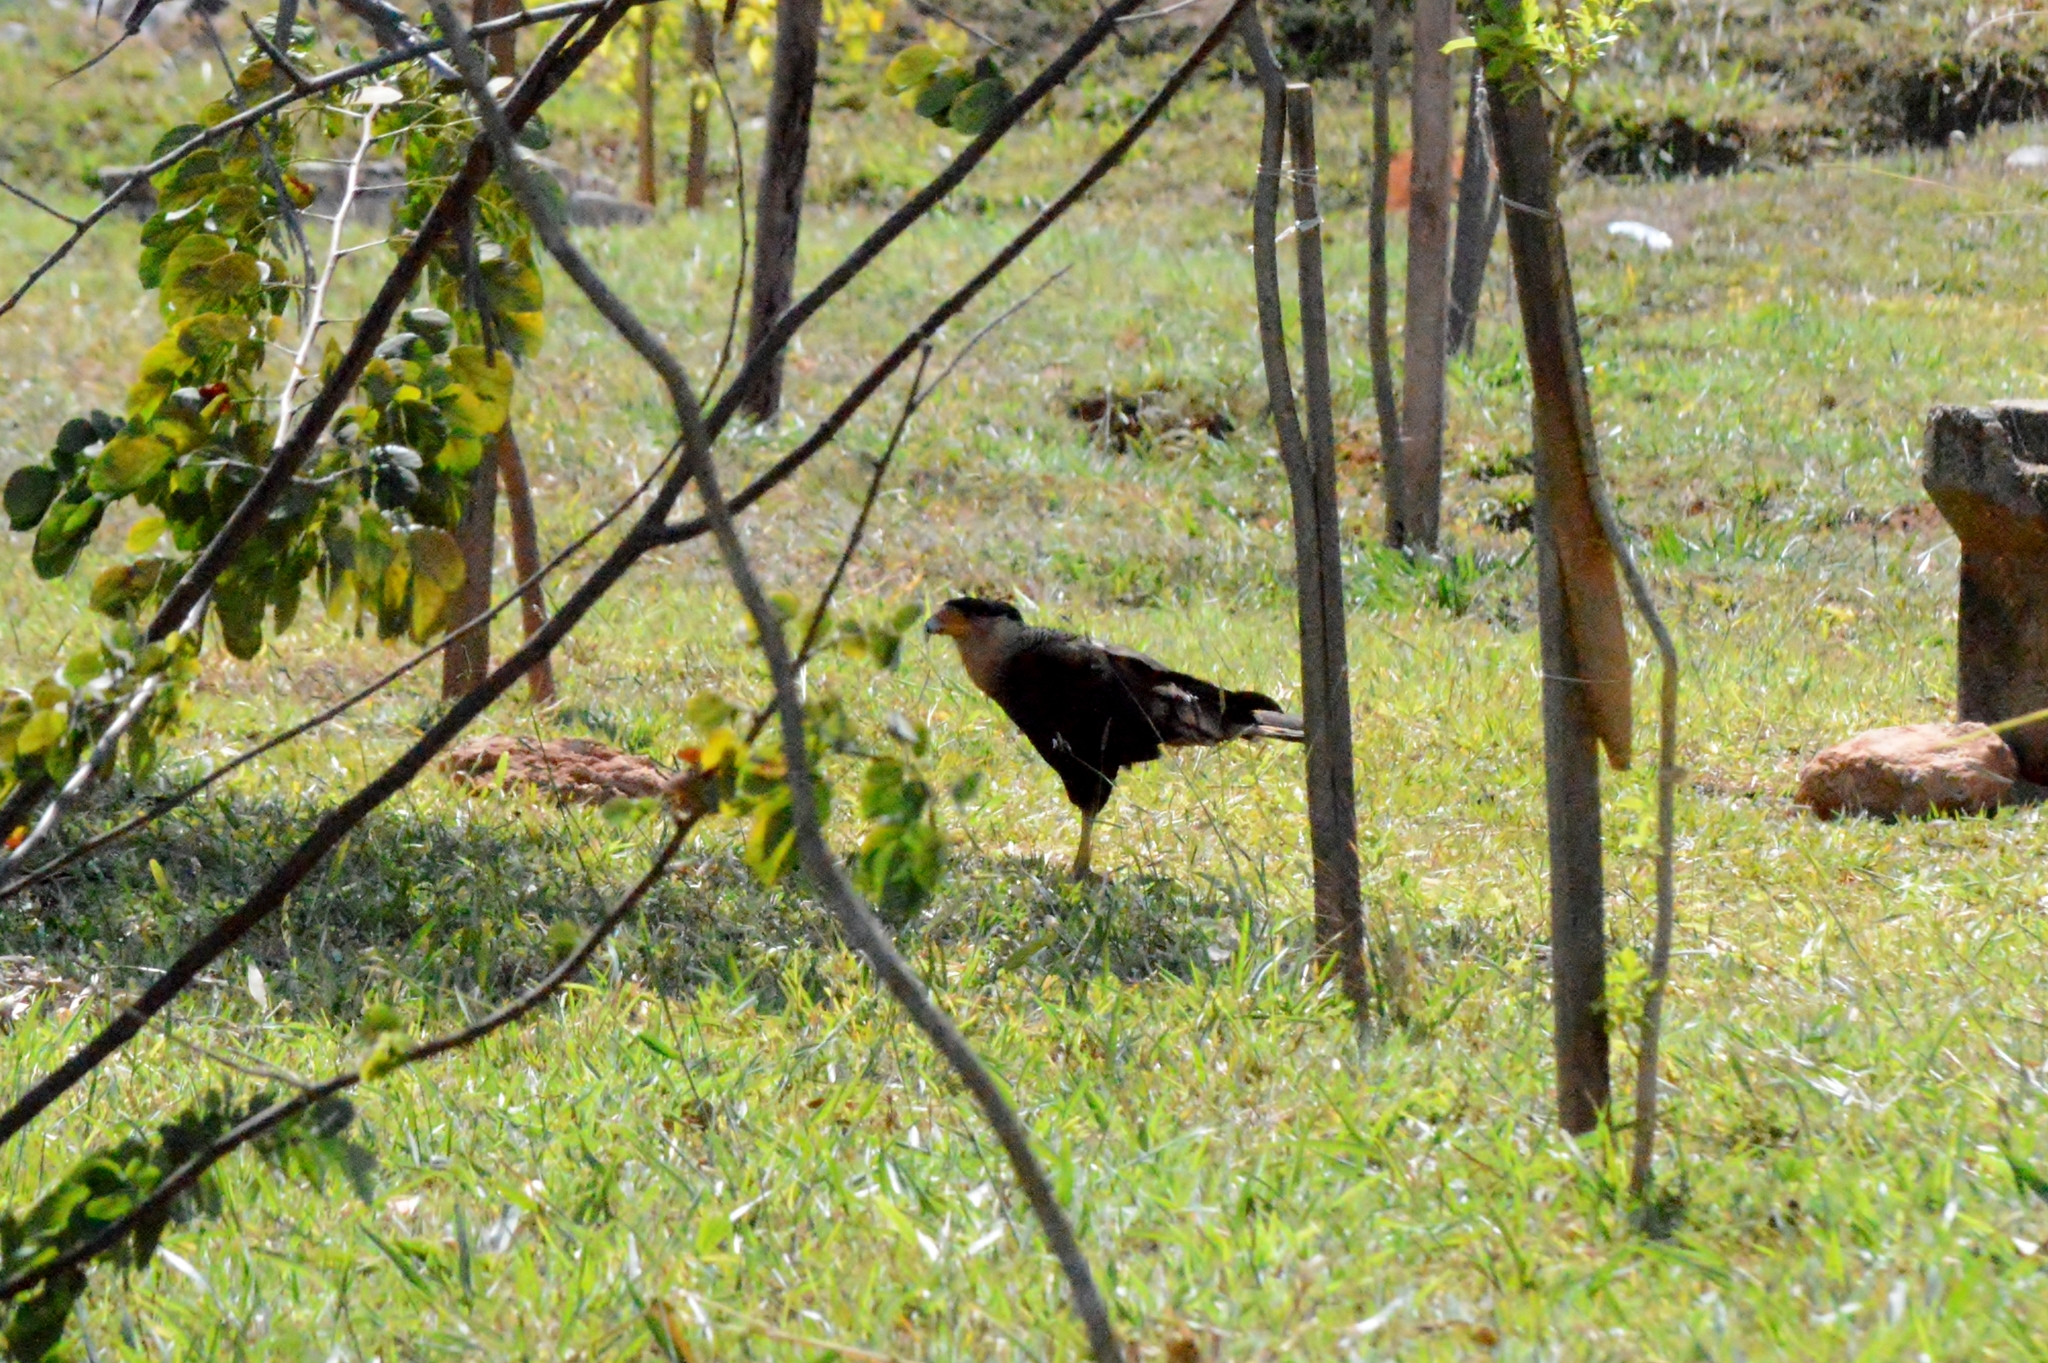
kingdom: Animalia
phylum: Chordata
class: Aves
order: Falconiformes
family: Falconidae
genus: Caracara
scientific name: Caracara plancus
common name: Southern caracara
